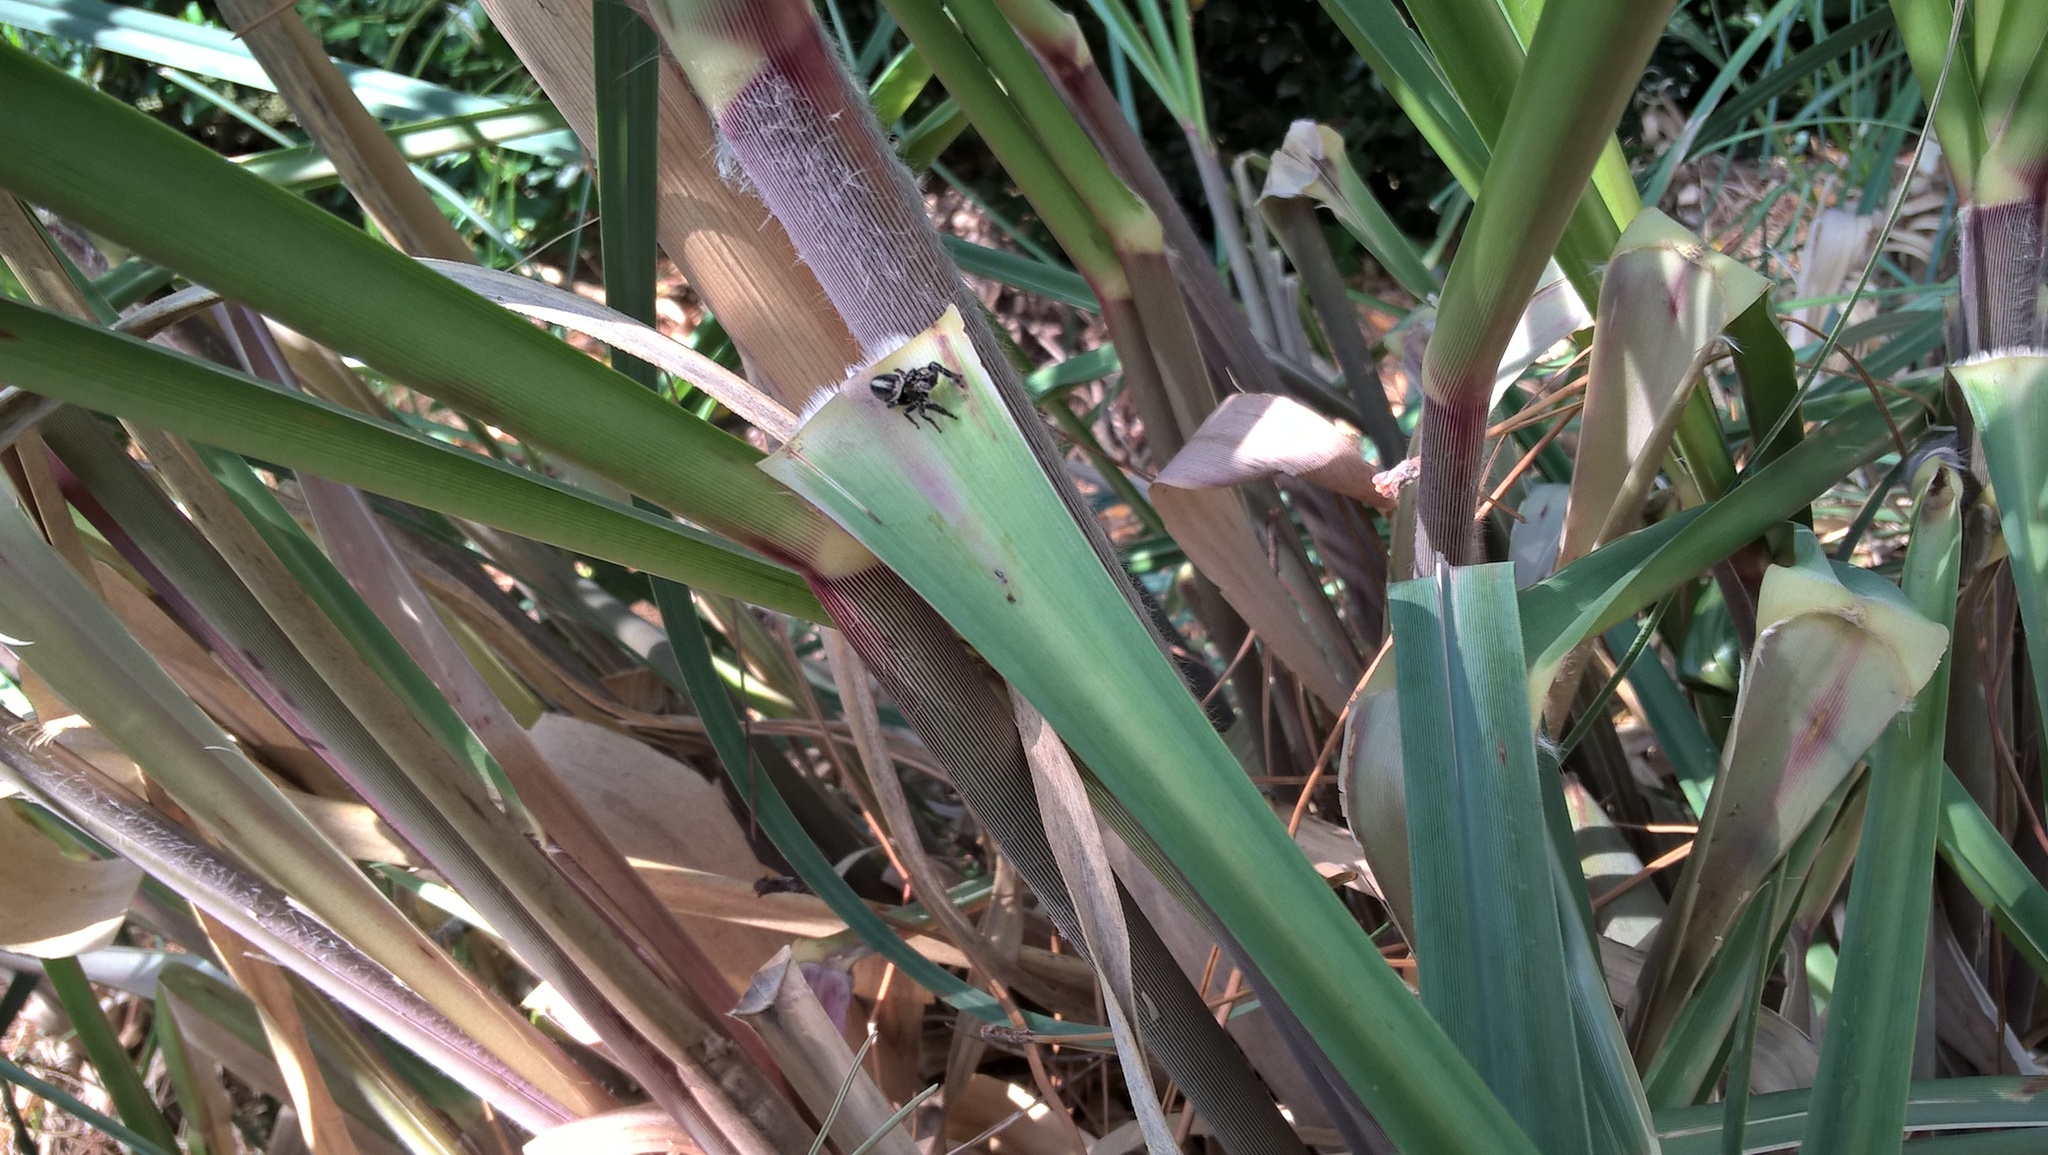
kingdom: Animalia
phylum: Arthropoda
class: Arachnida
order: Araneae
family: Salticidae
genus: Dendryphantes
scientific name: Dendryphantes mordax
